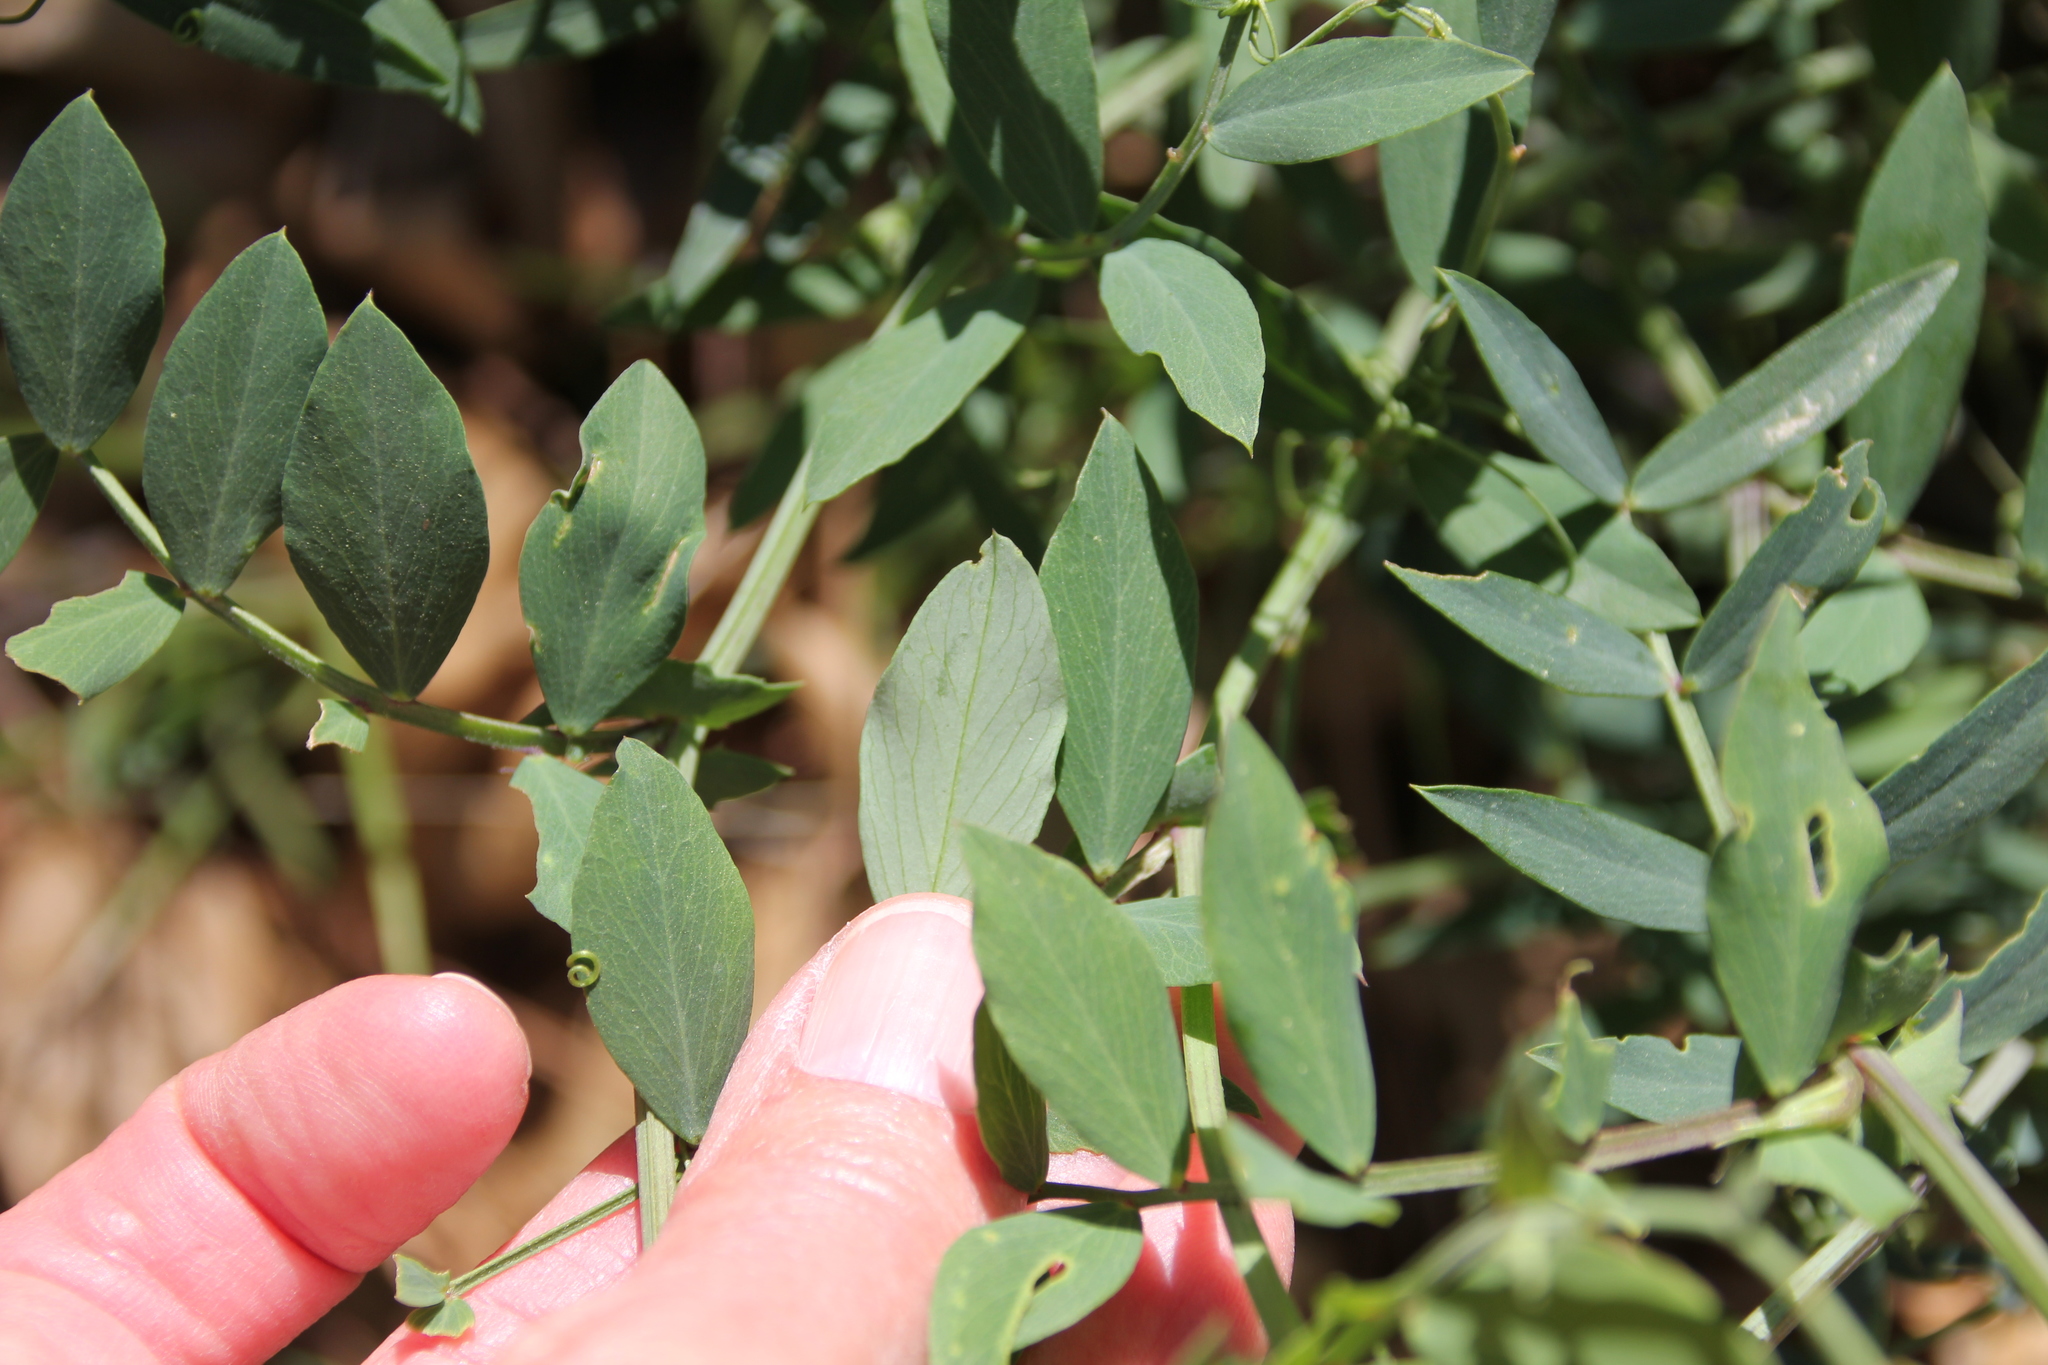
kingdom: Plantae
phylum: Tracheophyta
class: Magnoliopsida
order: Fabales
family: Fabaceae
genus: Lathyrus
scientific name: Lathyrus vestitus
